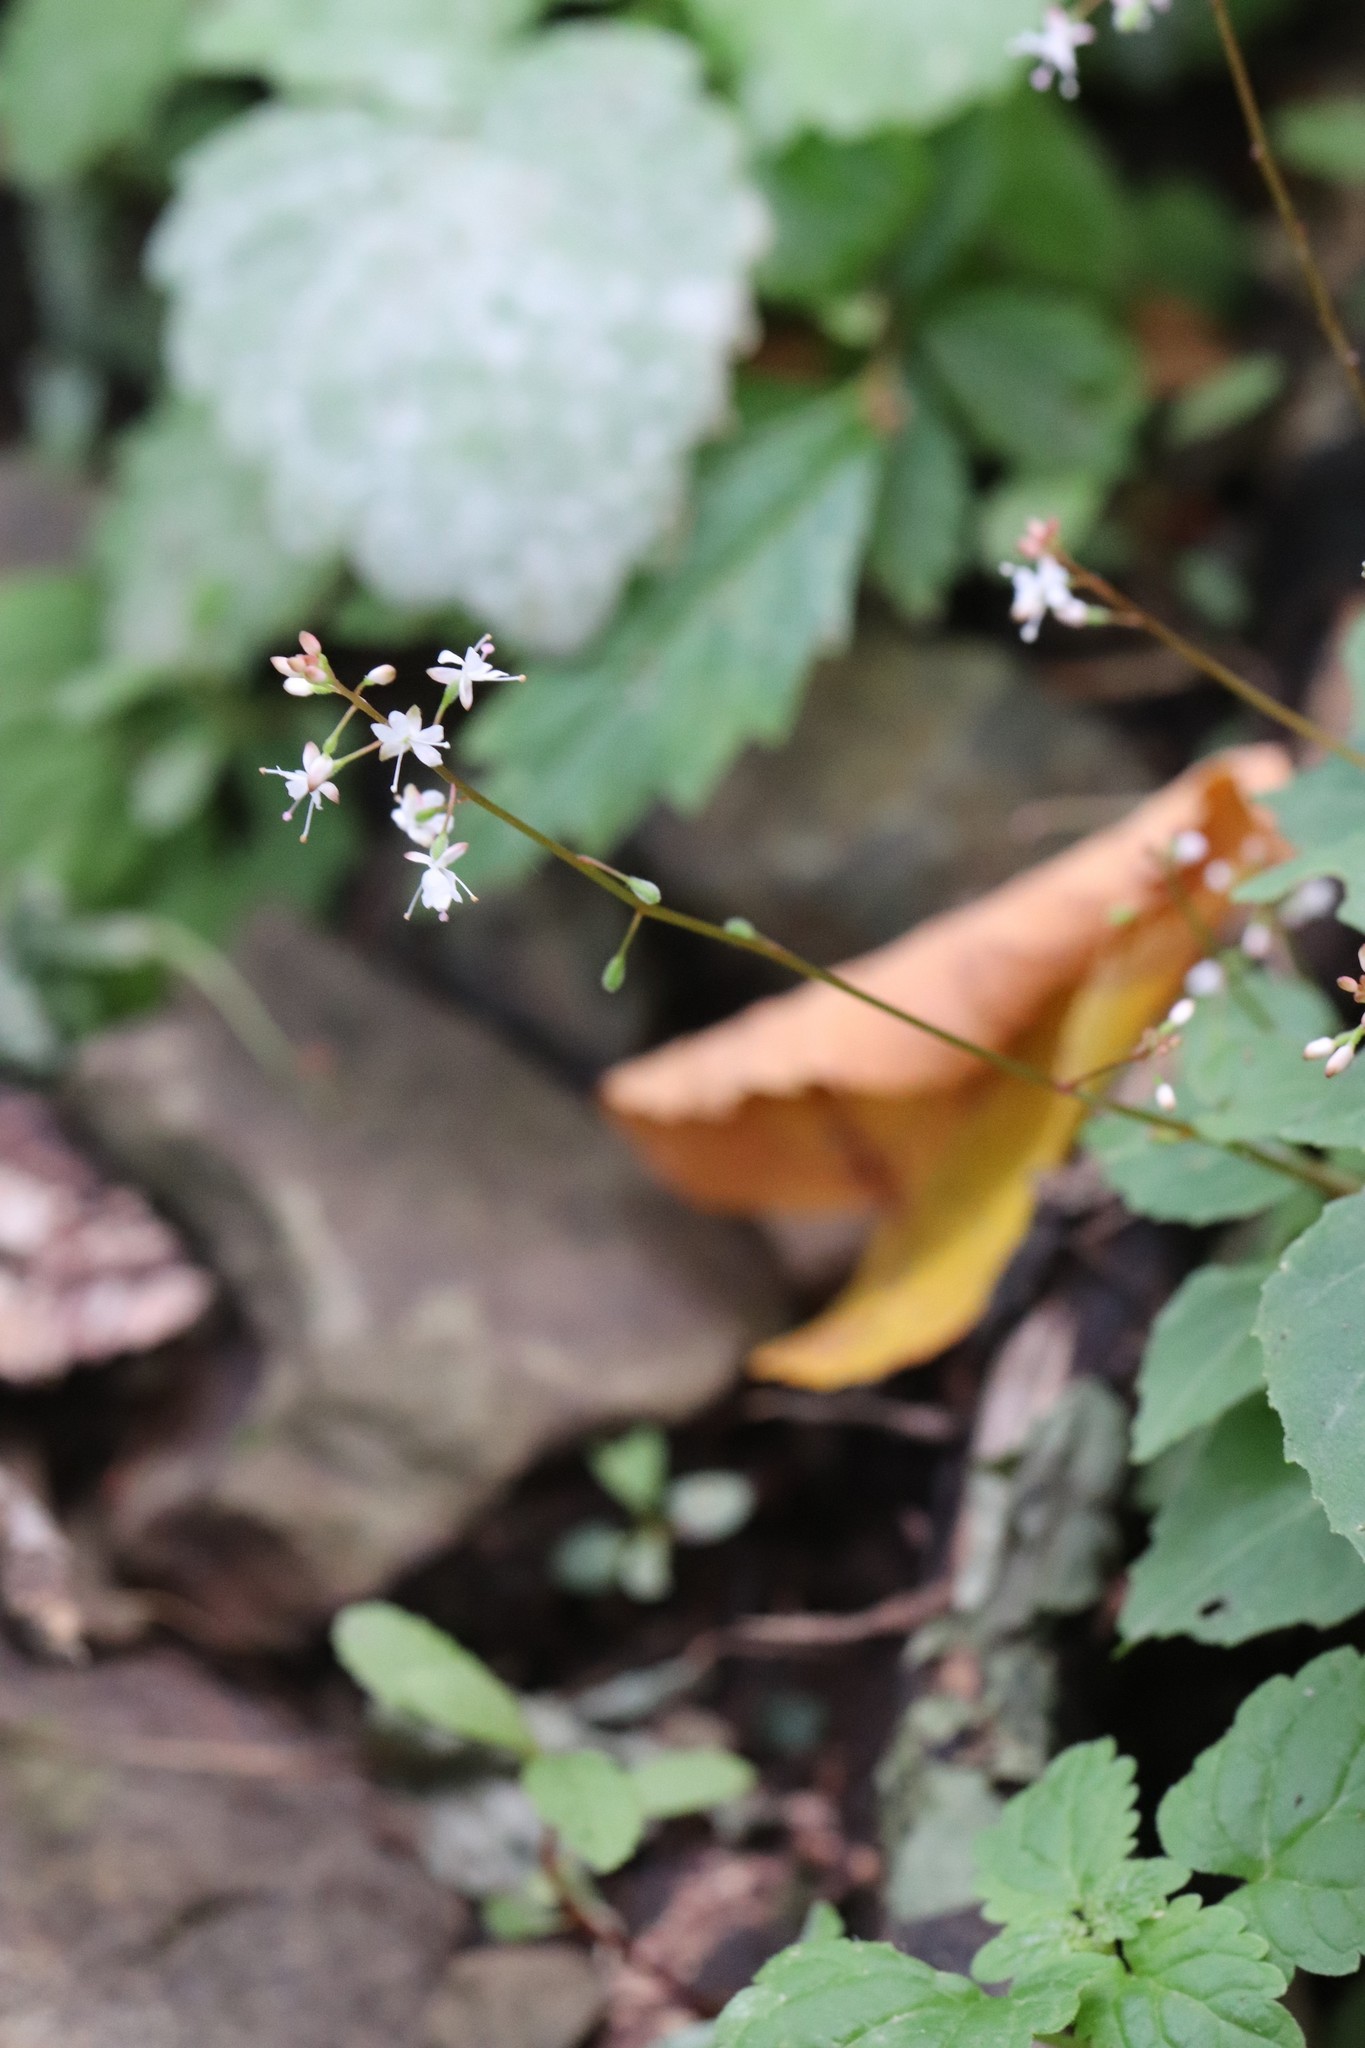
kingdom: Plantae
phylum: Tracheophyta
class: Magnoliopsida
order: Myrtales
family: Onagraceae
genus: Circaea
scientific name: Circaea alpina
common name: Alpine enchanter's-nightshade
